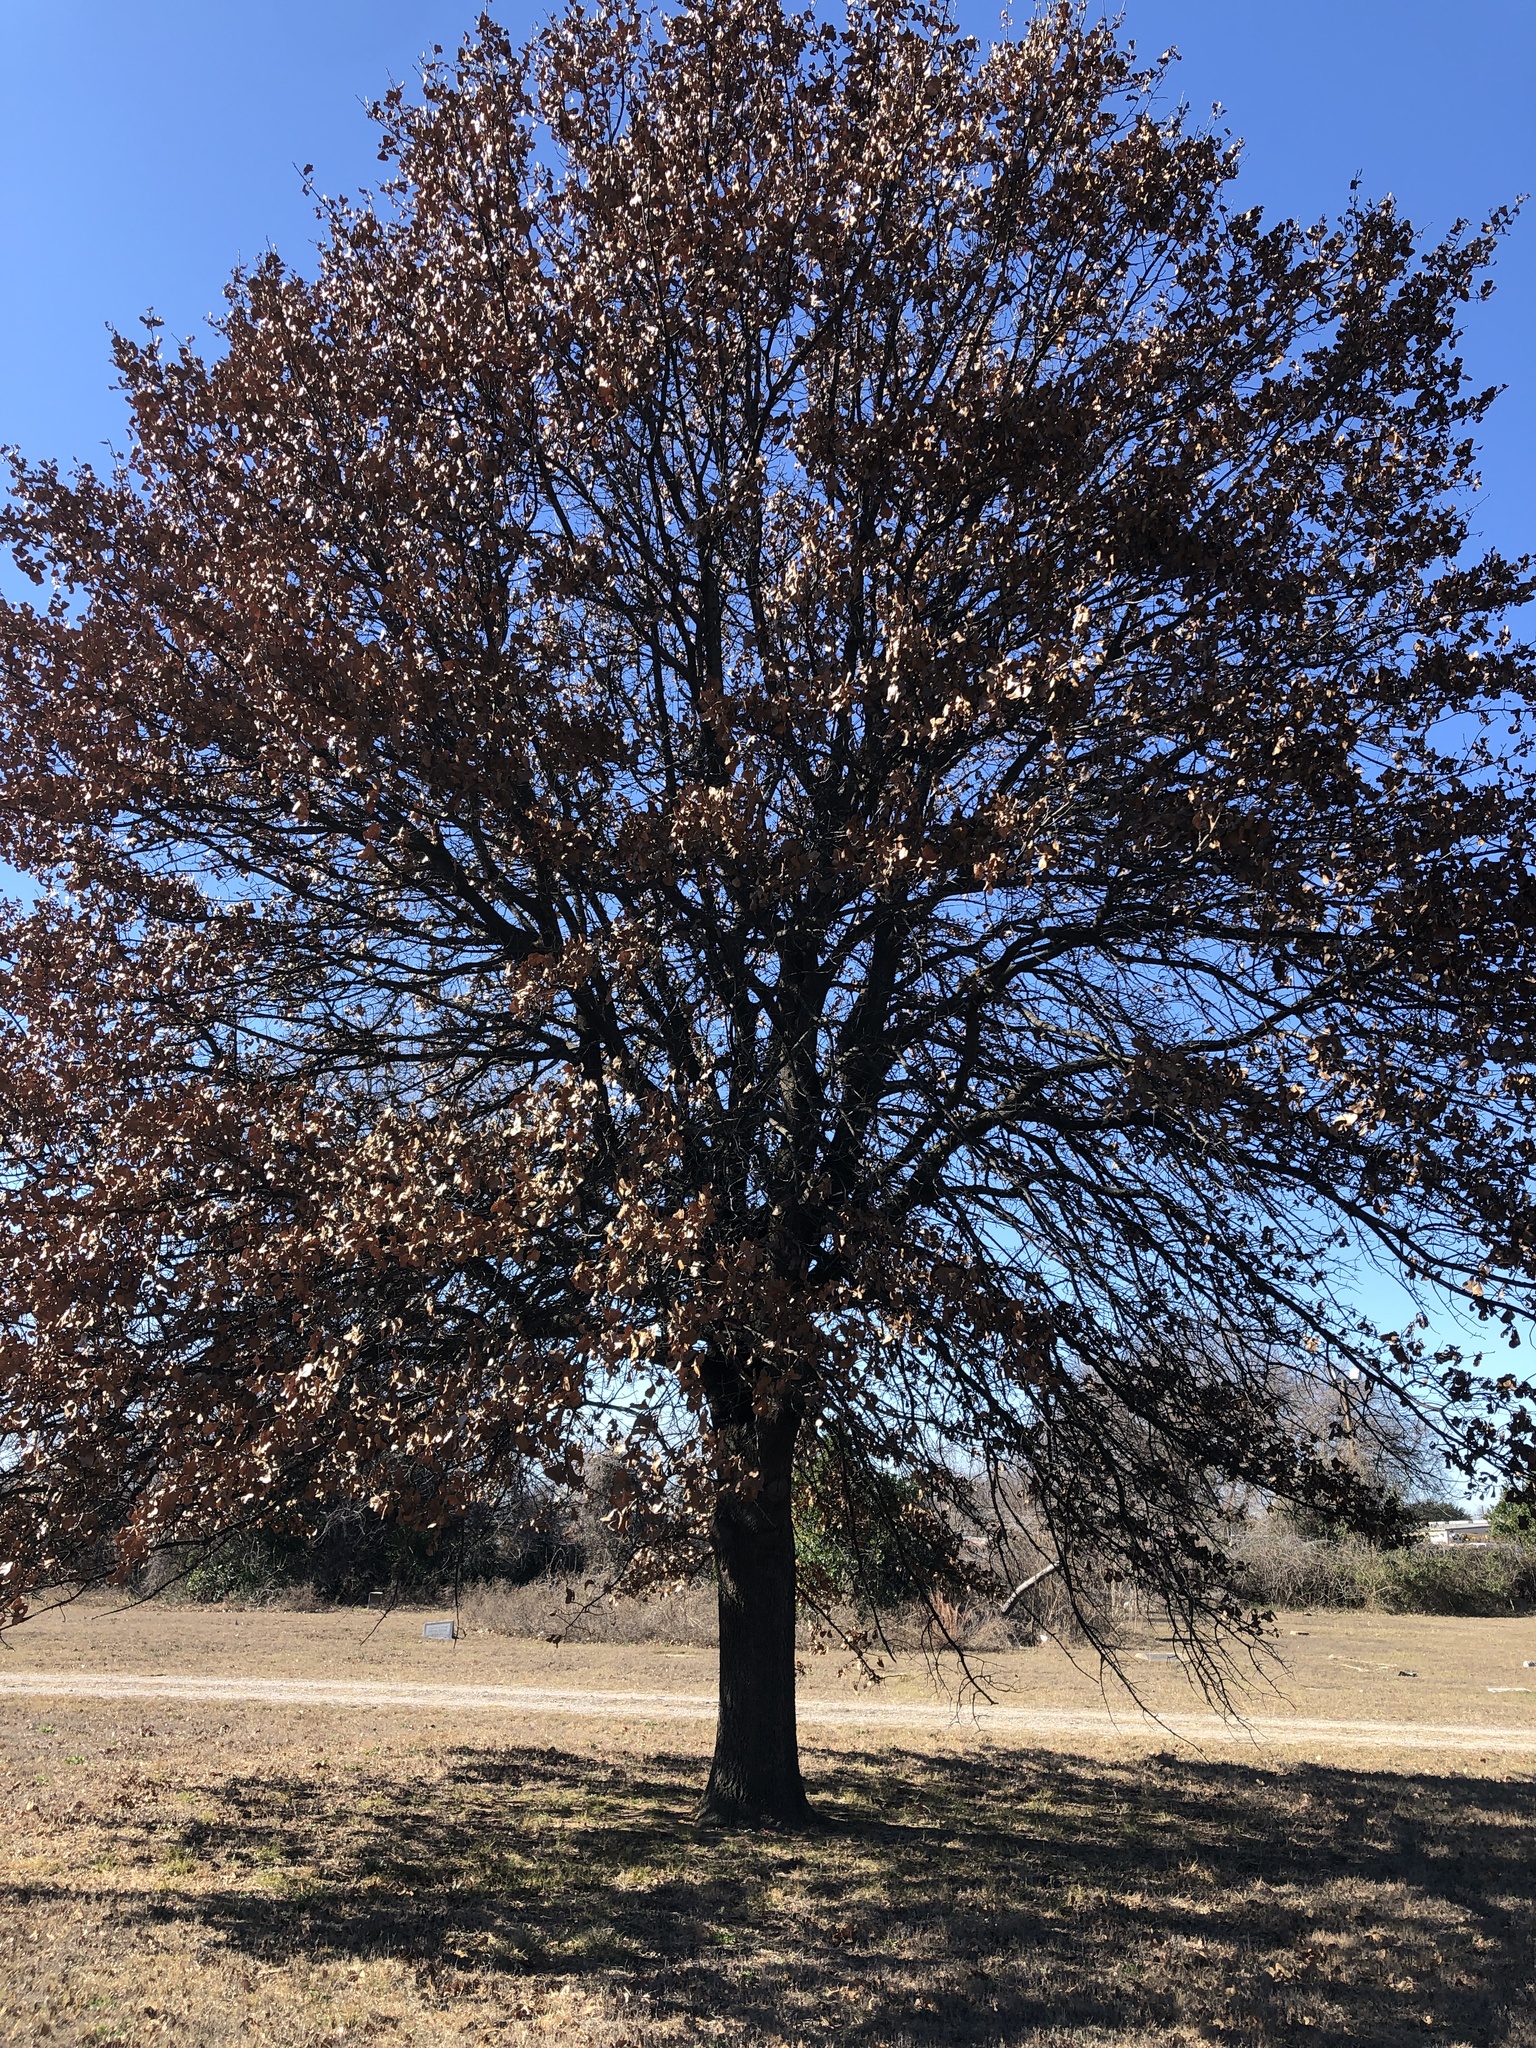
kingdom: Plantae
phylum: Tracheophyta
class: Magnoliopsida
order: Fagales
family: Fagaceae
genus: Quercus
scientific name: Quercus marilandica
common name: Blackjack oak
